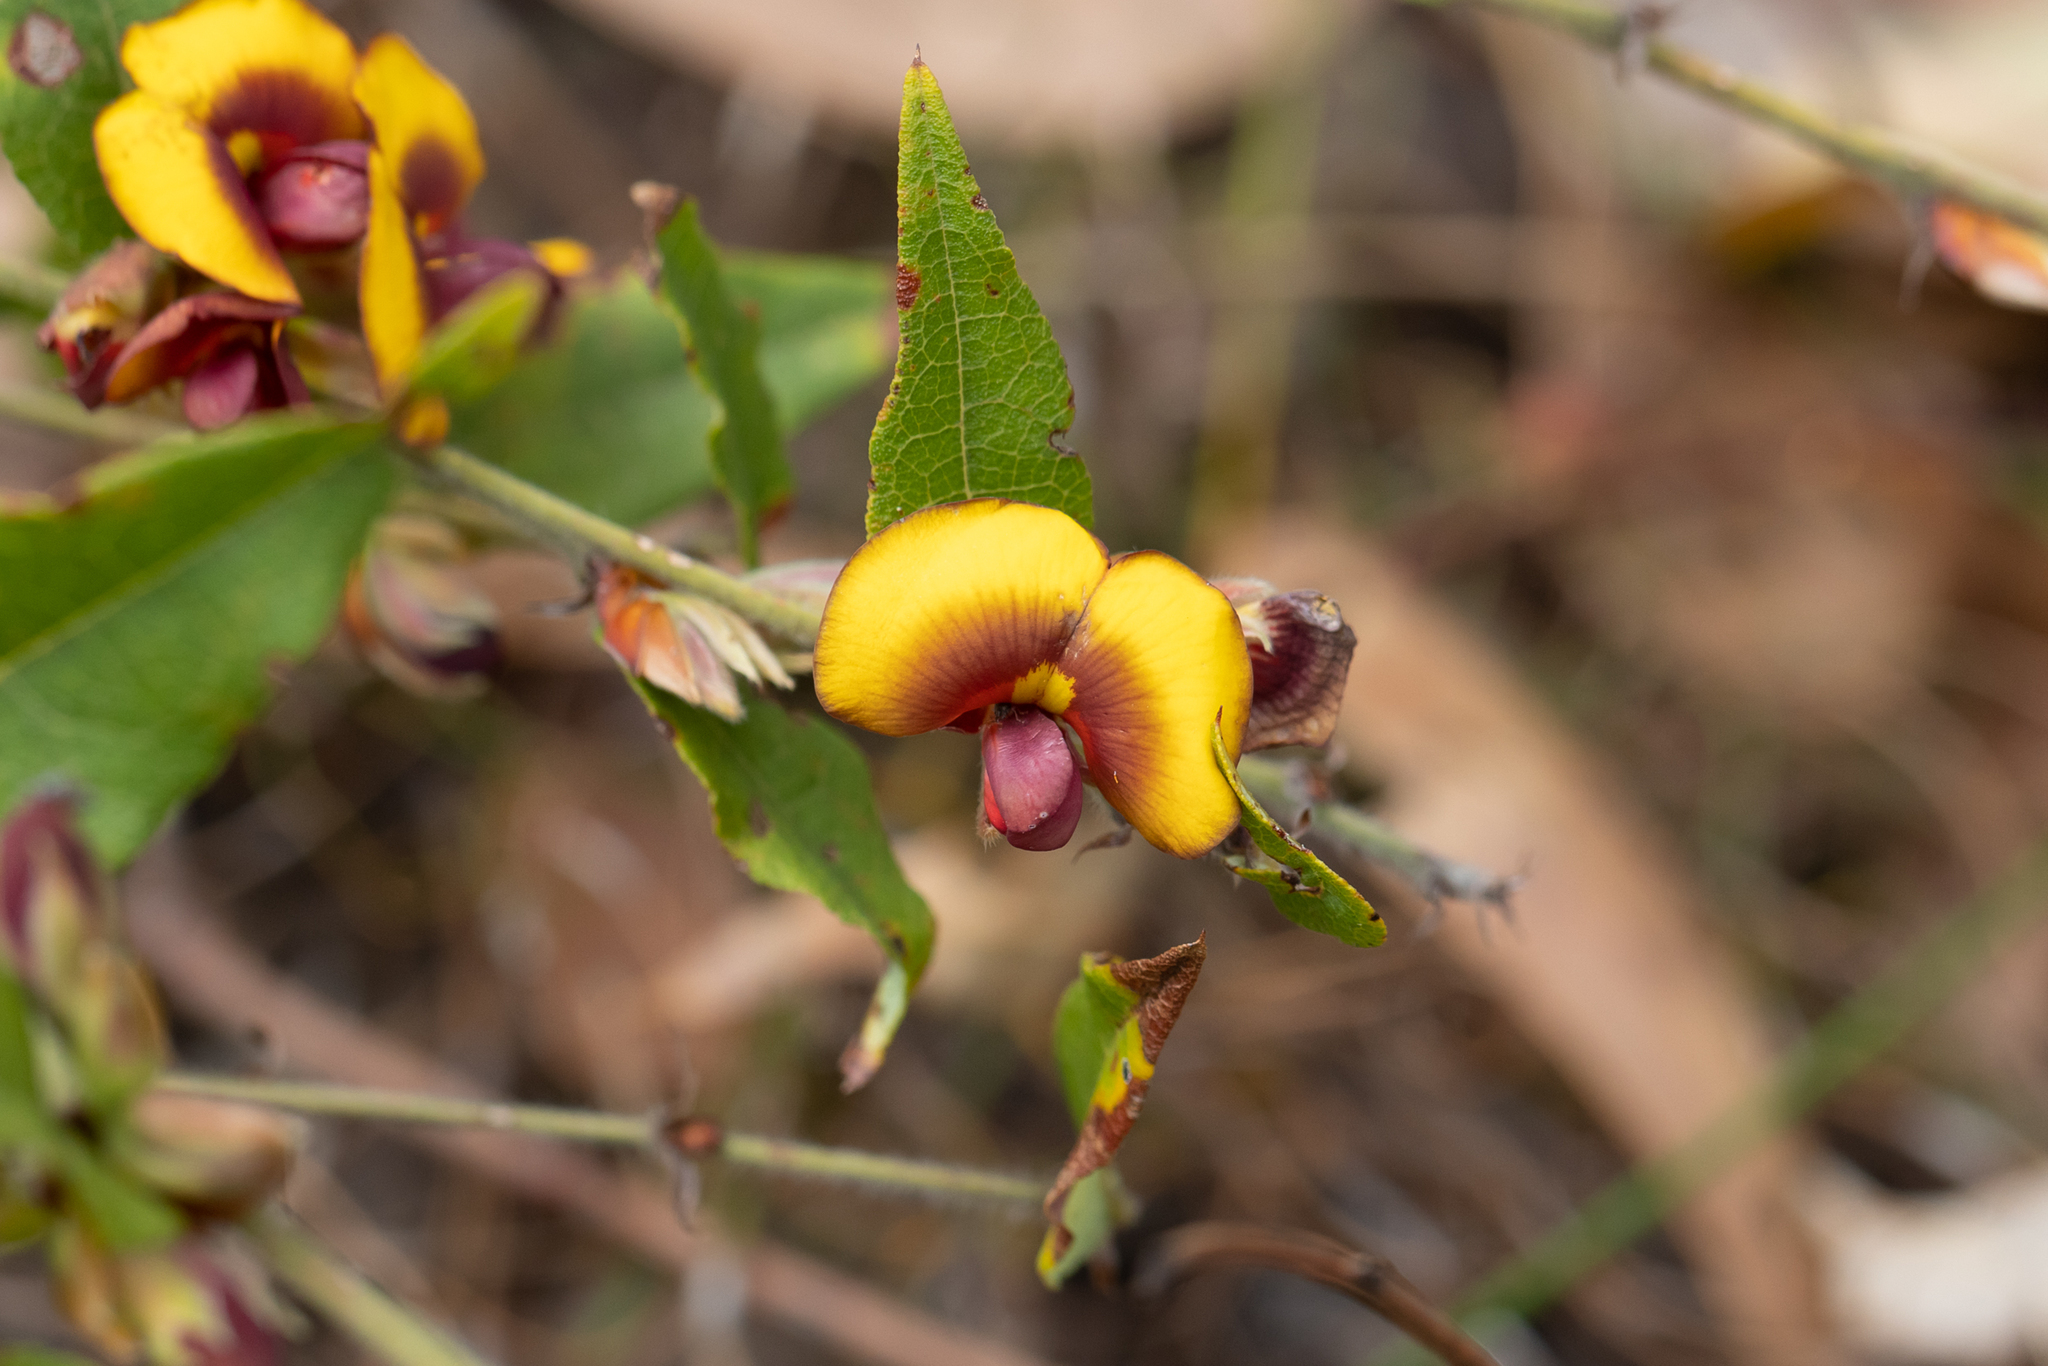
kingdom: Plantae
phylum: Tracheophyta
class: Magnoliopsida
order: Fabales
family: Fabaceae
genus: Bossiaea
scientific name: Bossiaea ornata
